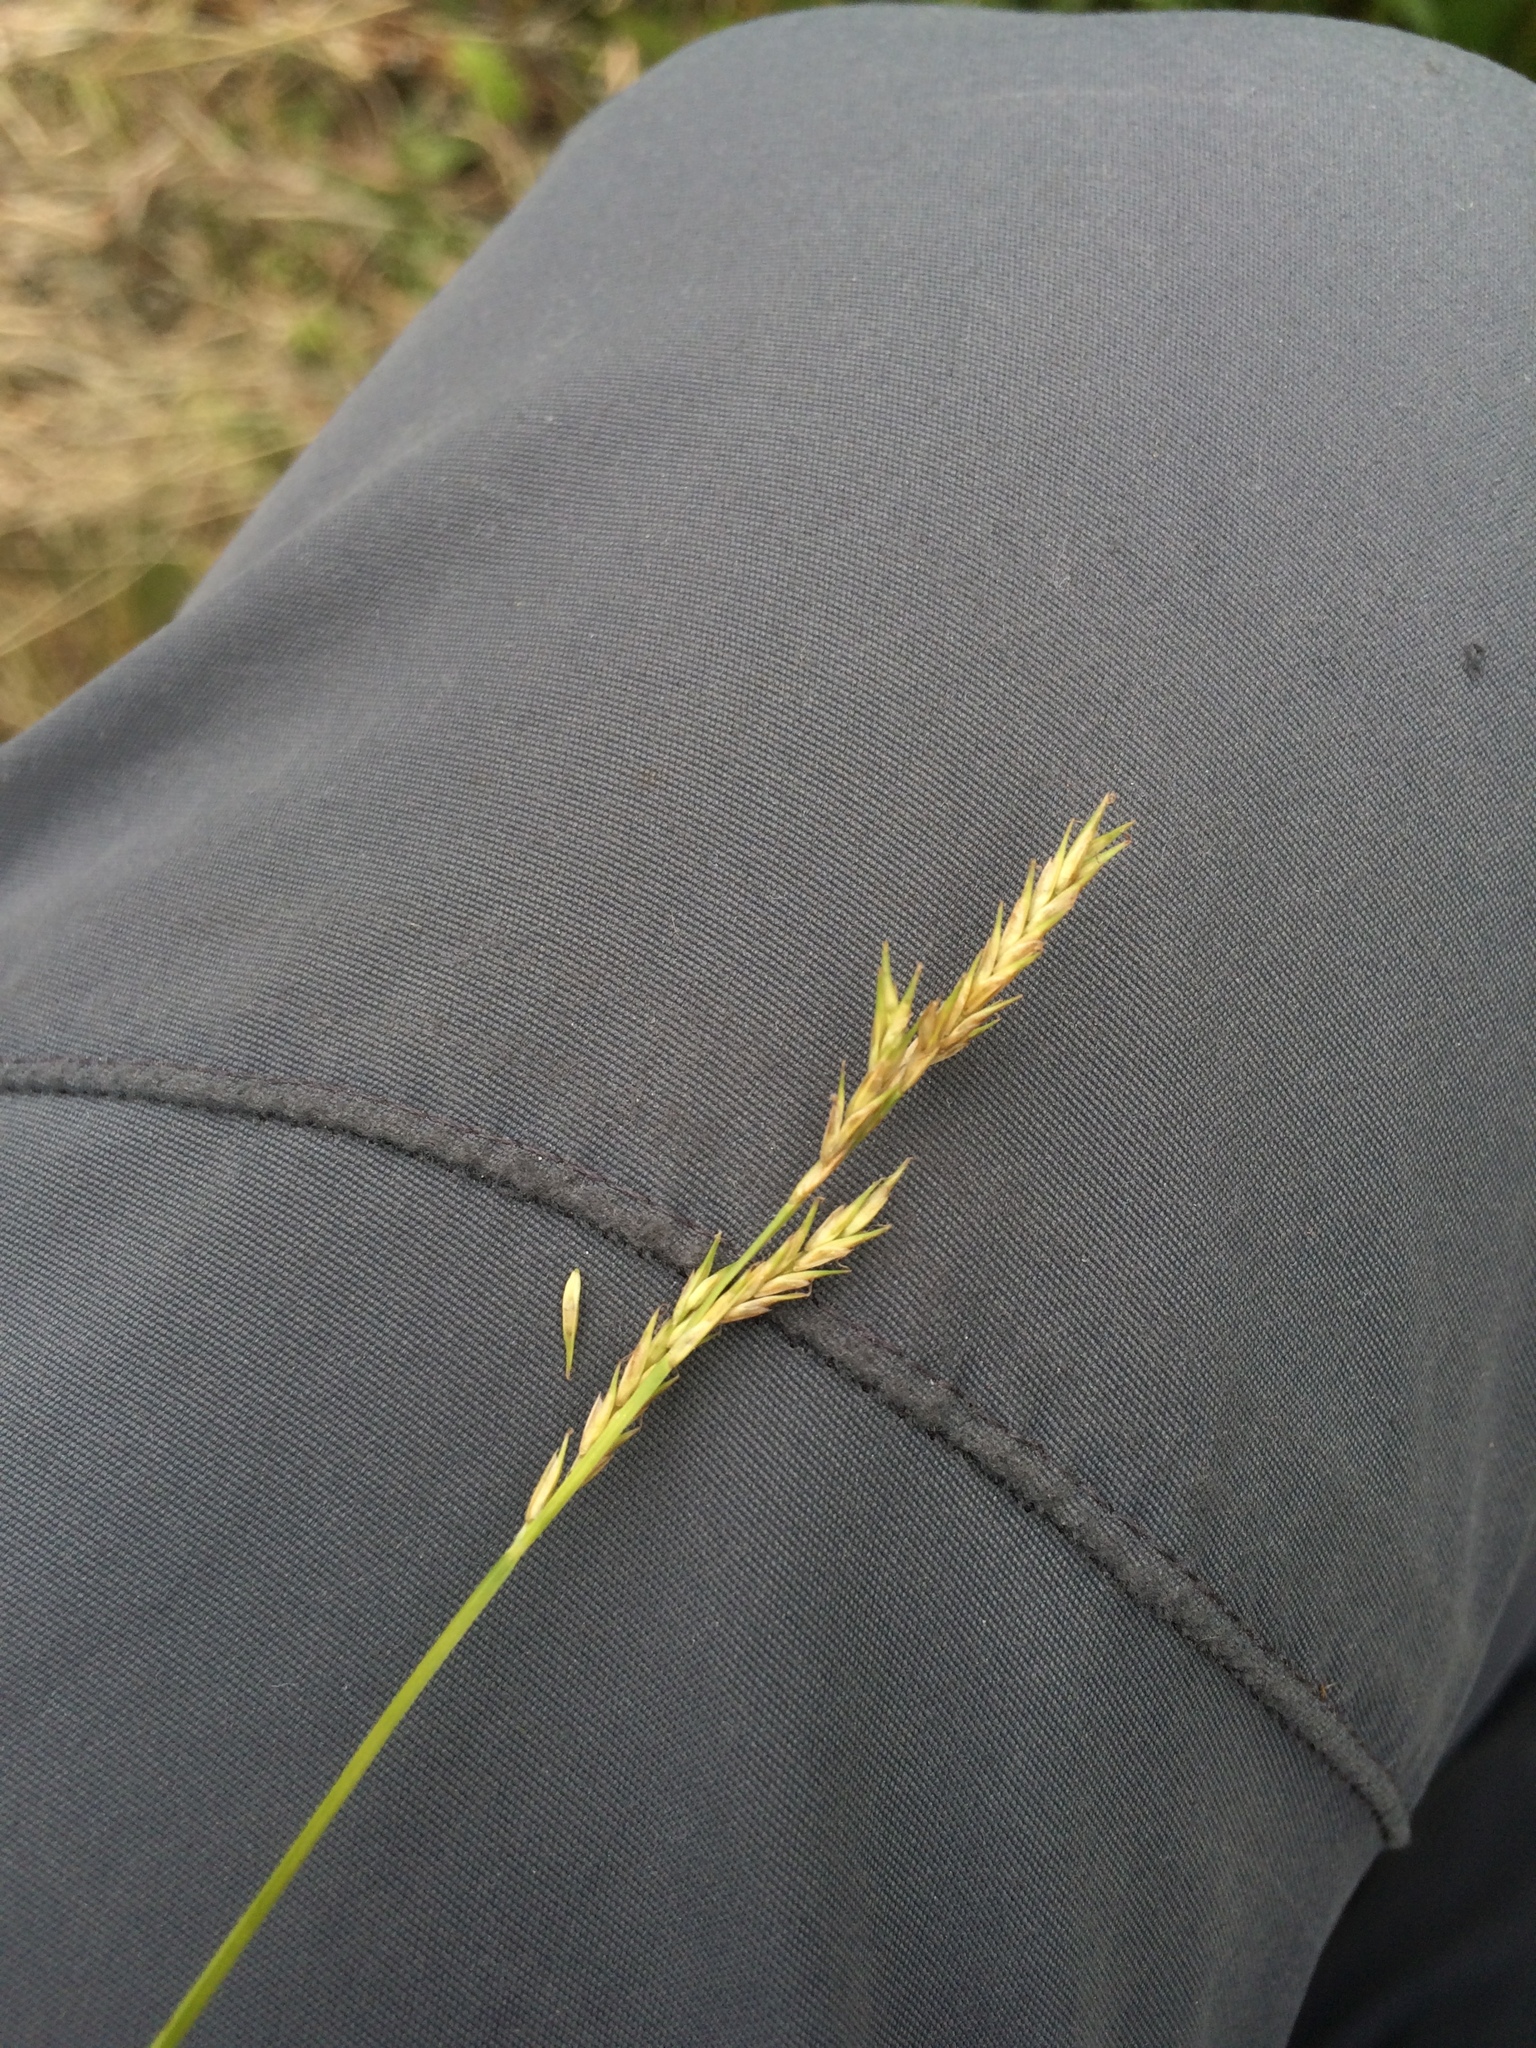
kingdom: Plantae
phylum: Tracheophyta
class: Liliopsida
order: Poales
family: Cyperaceae
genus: Carex
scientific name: Carex bromoides
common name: Brome hummock sedge
